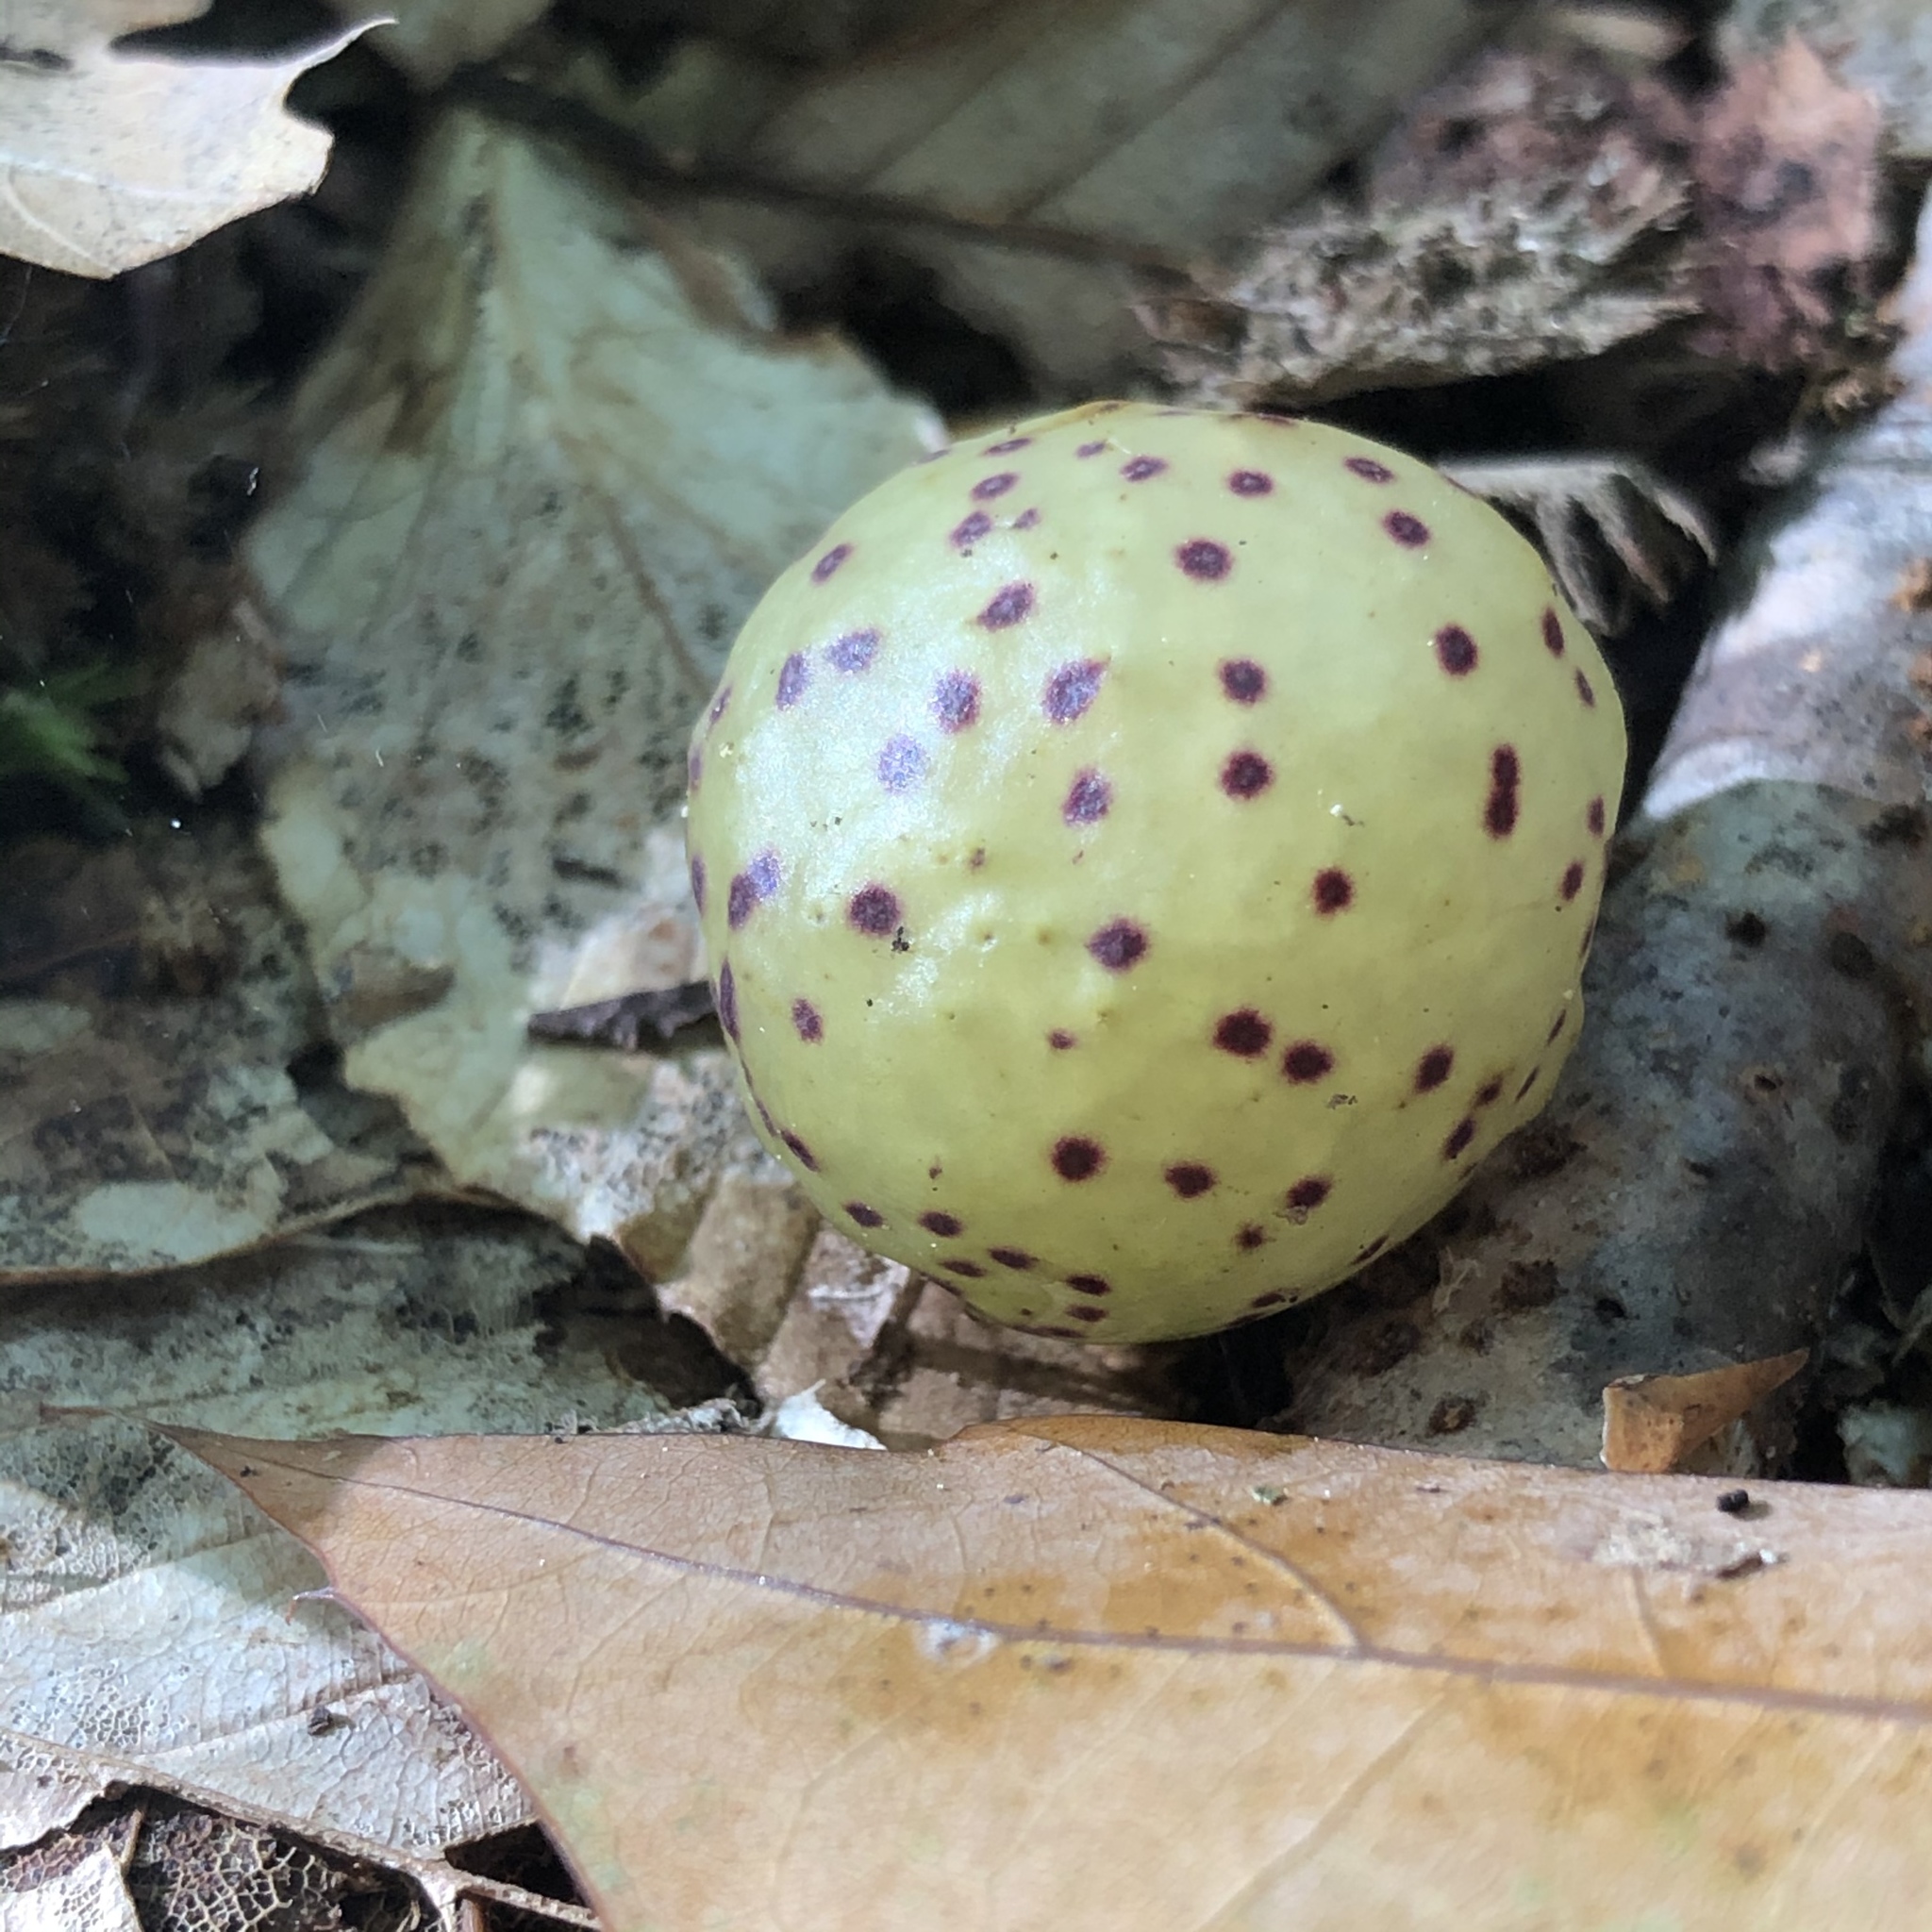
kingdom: Animalia
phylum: Arthropoda
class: Insecta
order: Hymenoptera
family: Cynipidae
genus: Amphibolips
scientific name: Amphibolips
